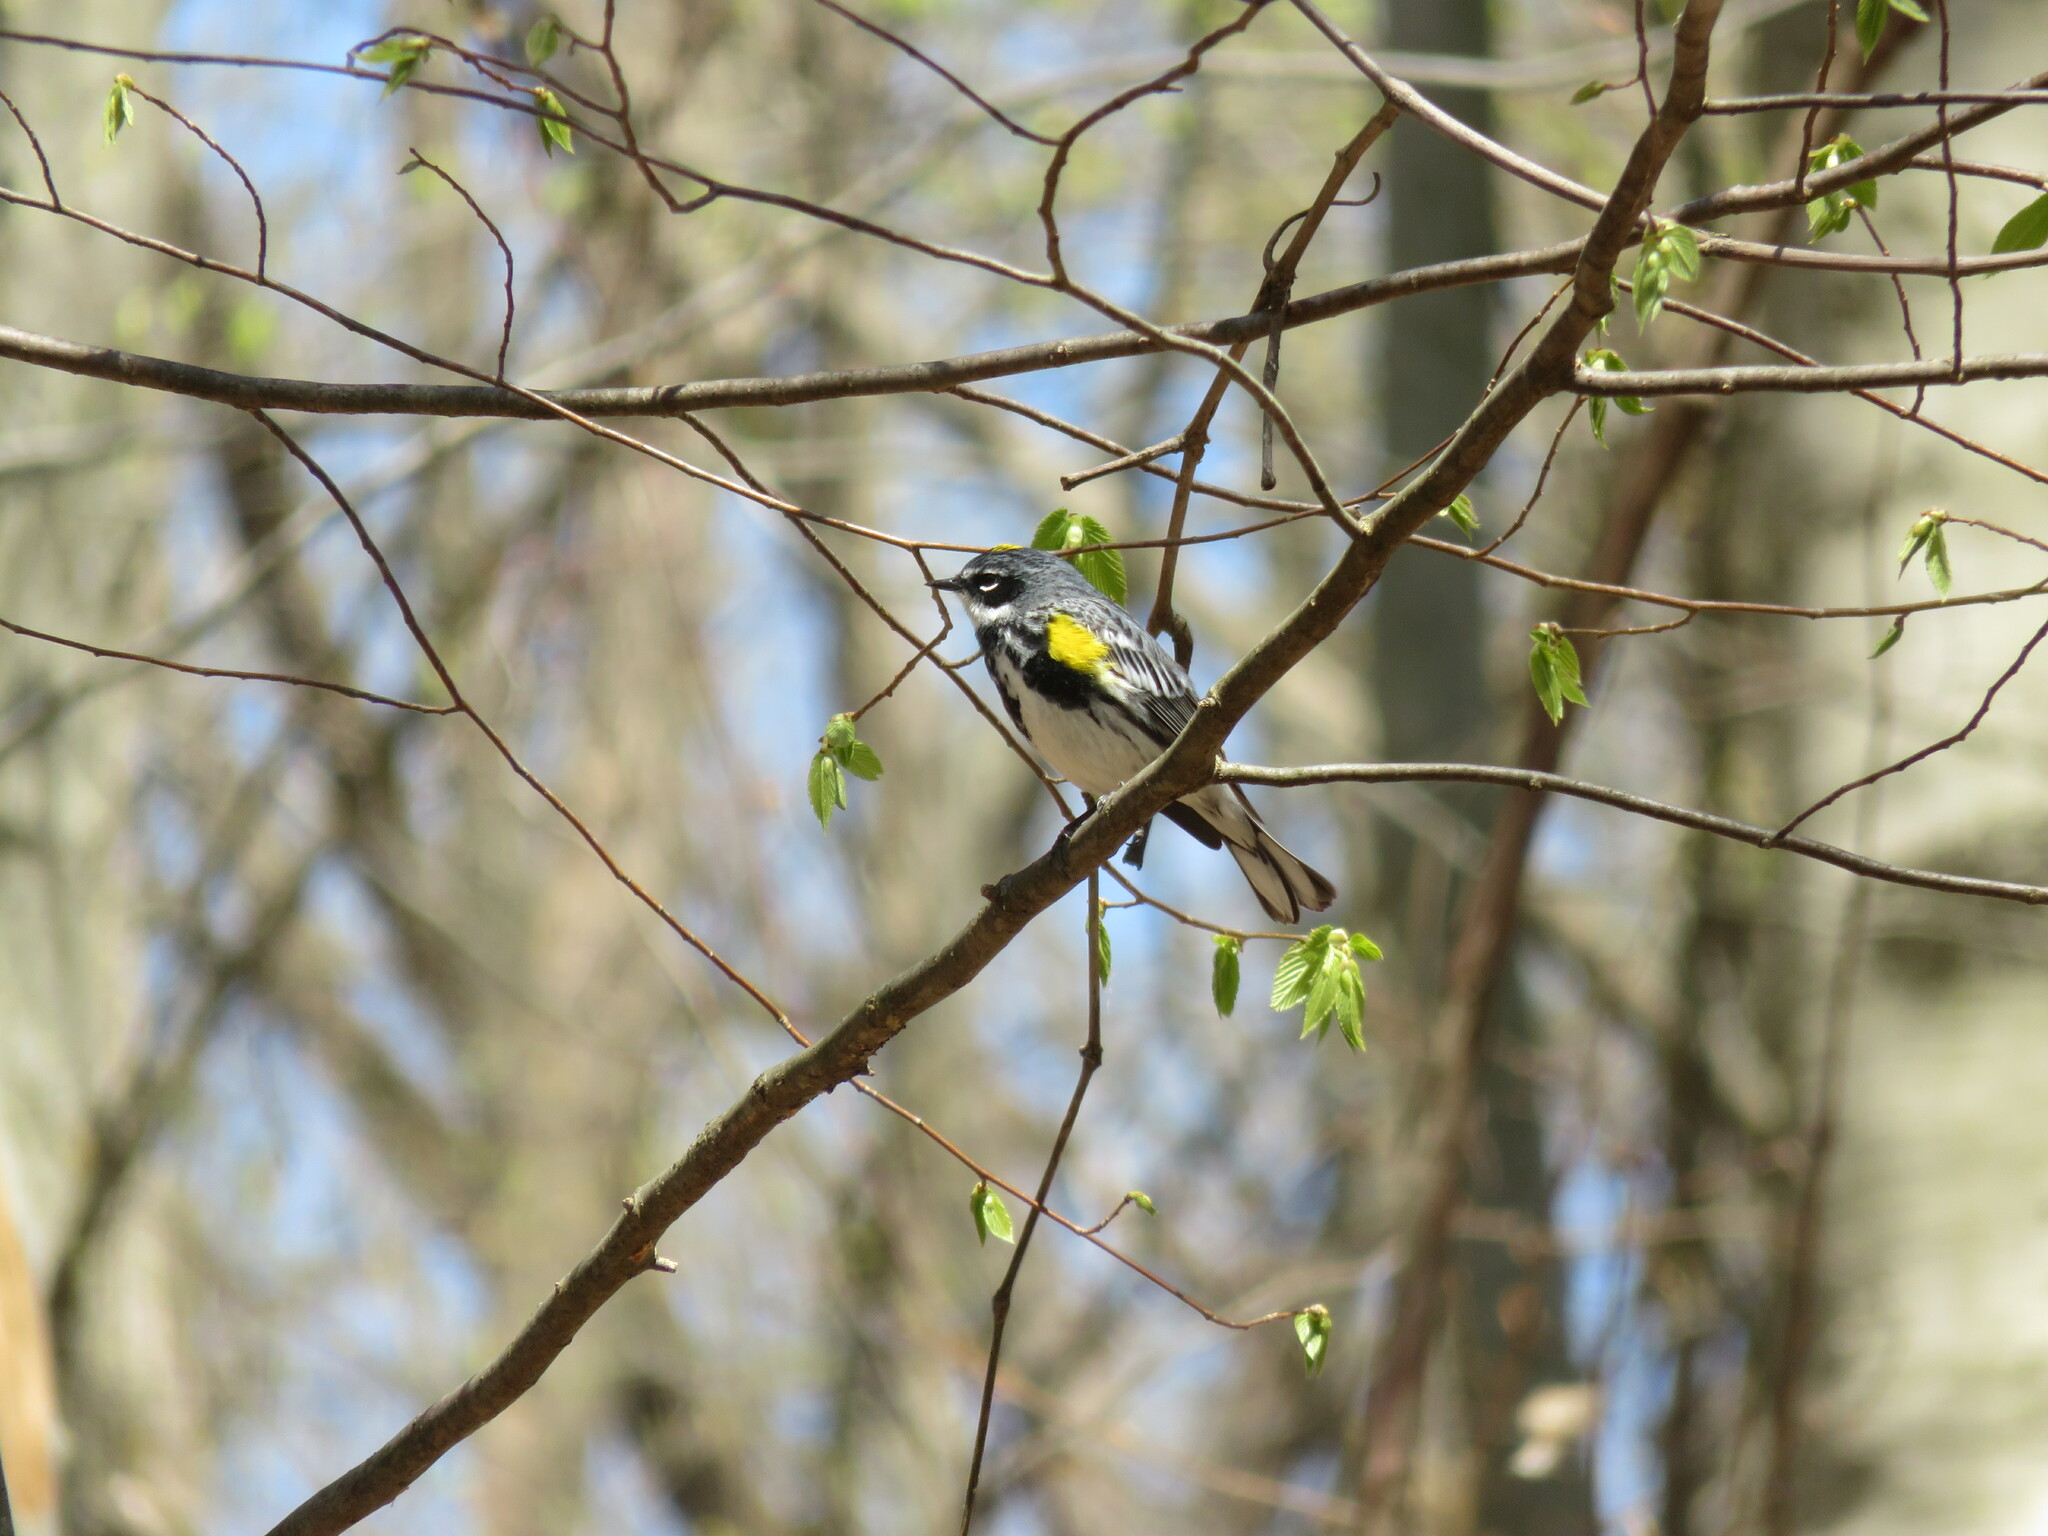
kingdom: Animalia
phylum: Chordata
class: Aves
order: Passeriformes
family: Parulidae
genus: Setophaga
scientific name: Setophaga coronata
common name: Myrtle warbler
